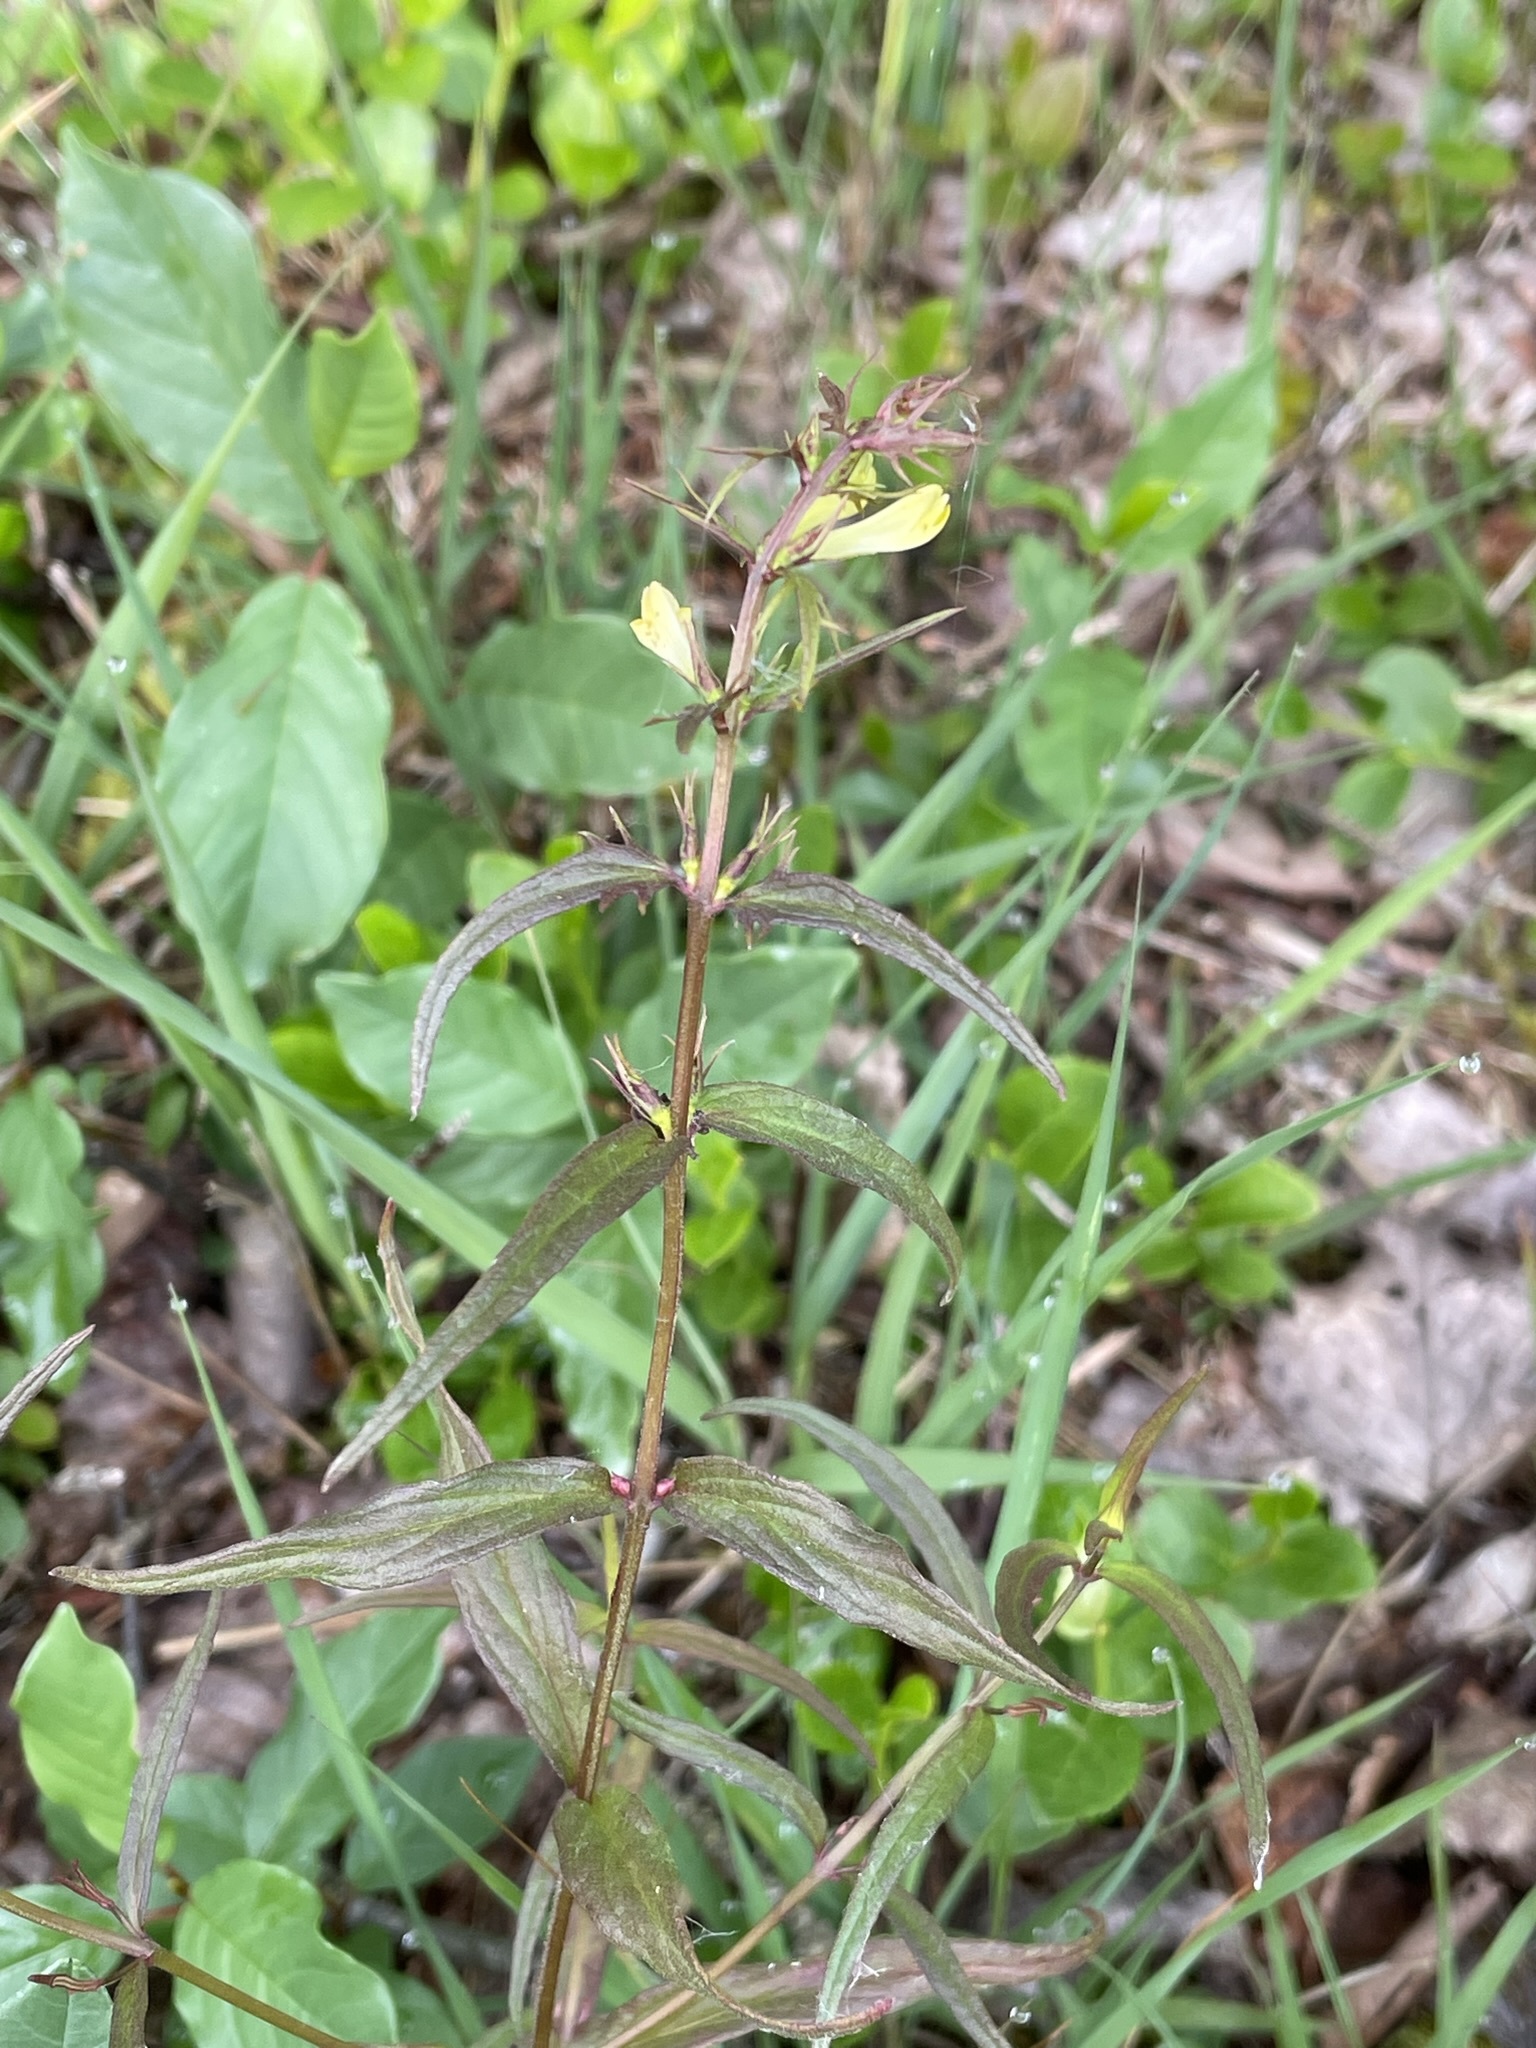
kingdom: Plantae
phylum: Tracheophyta
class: Magnoliopsida
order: Lamiales
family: Orobanchaceae
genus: Melampyrum
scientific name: Melampyrum pratense
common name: Common cow-wheat
